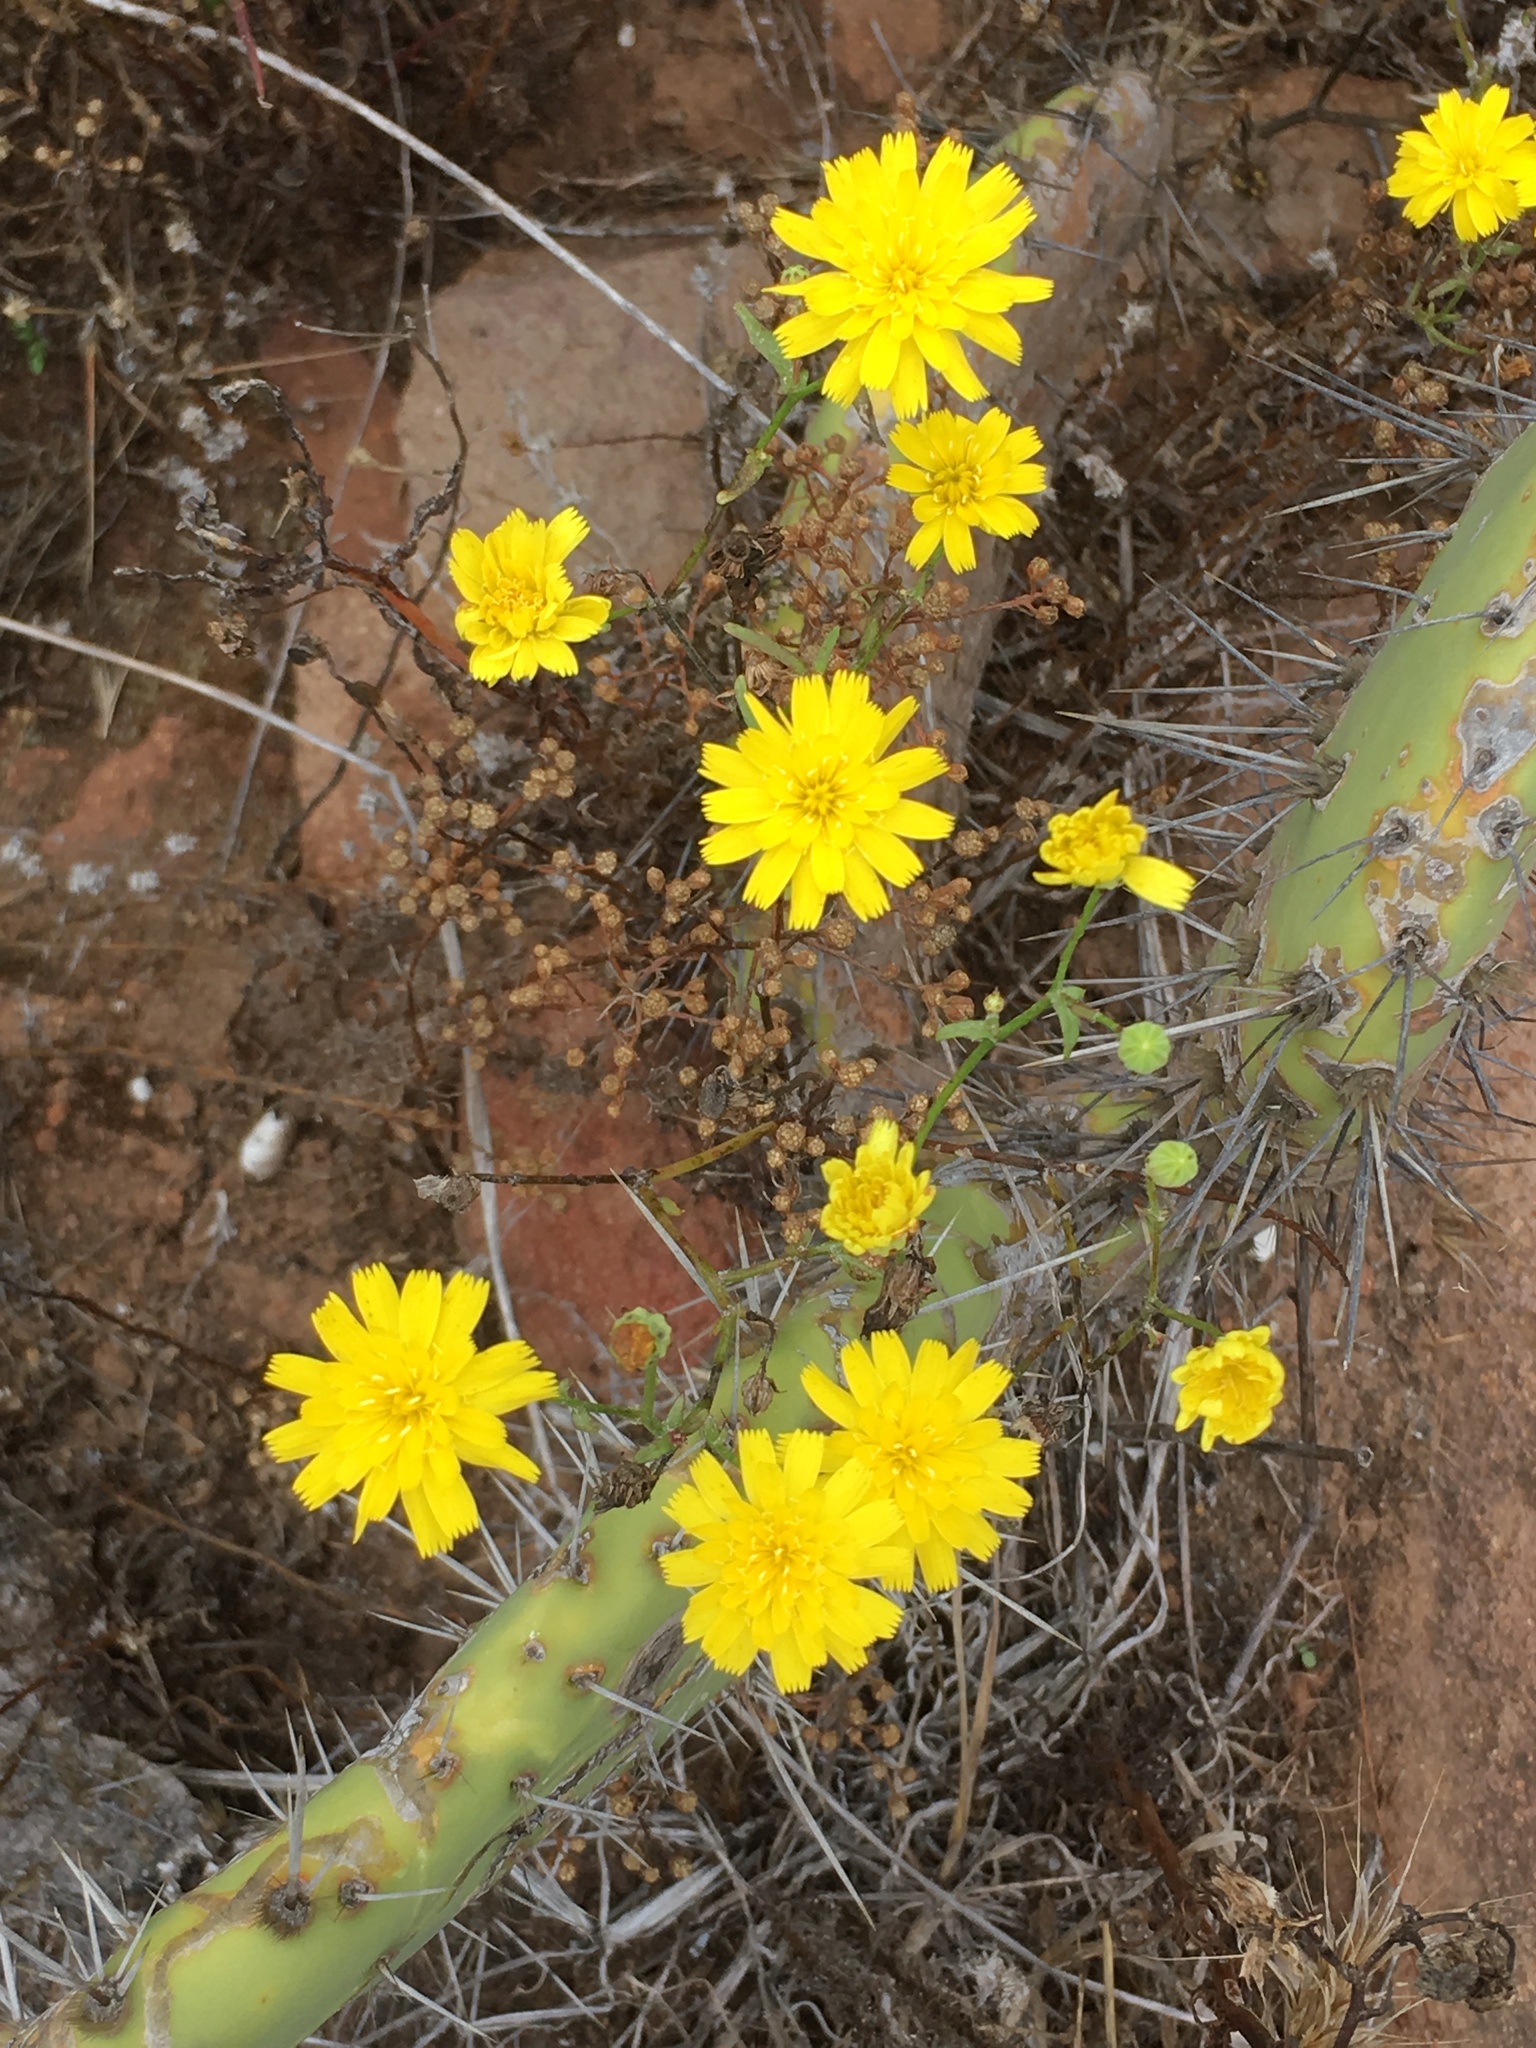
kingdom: Plantae
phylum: Tracheophyta
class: Magnoliopsida
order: Asterales
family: Asteraceae
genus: Malacothrix
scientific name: Malacothrix foliosa
